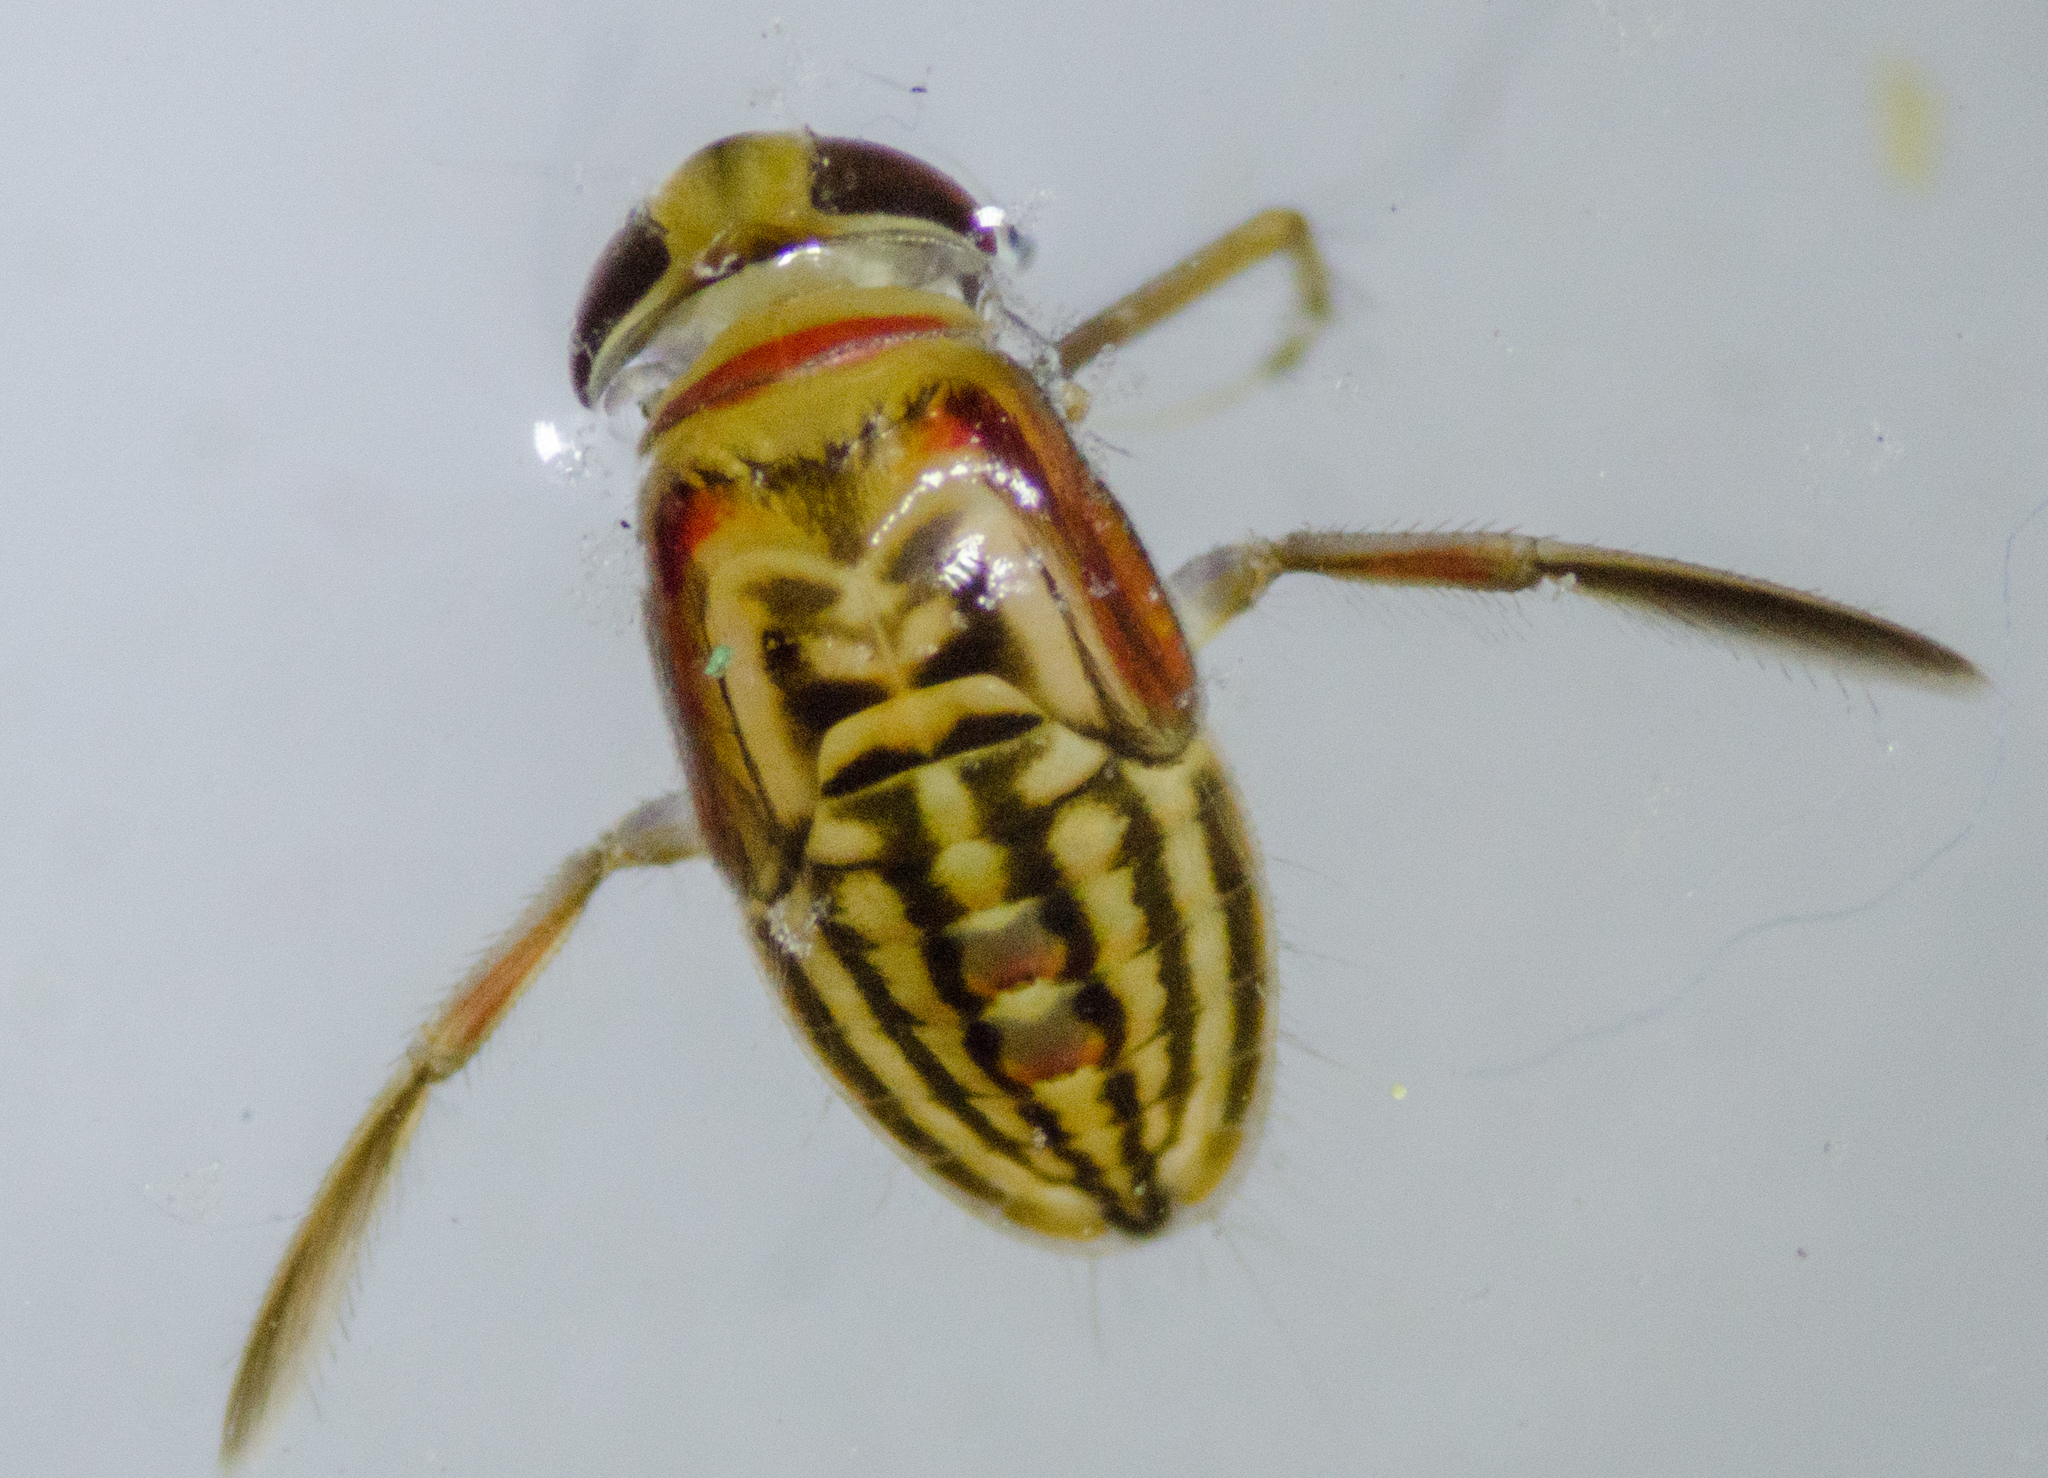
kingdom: Animalia
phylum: Arthropoda
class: Insecta
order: Hemiptera
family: Corixidae
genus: Vermicorixa
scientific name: Vermicorixa
